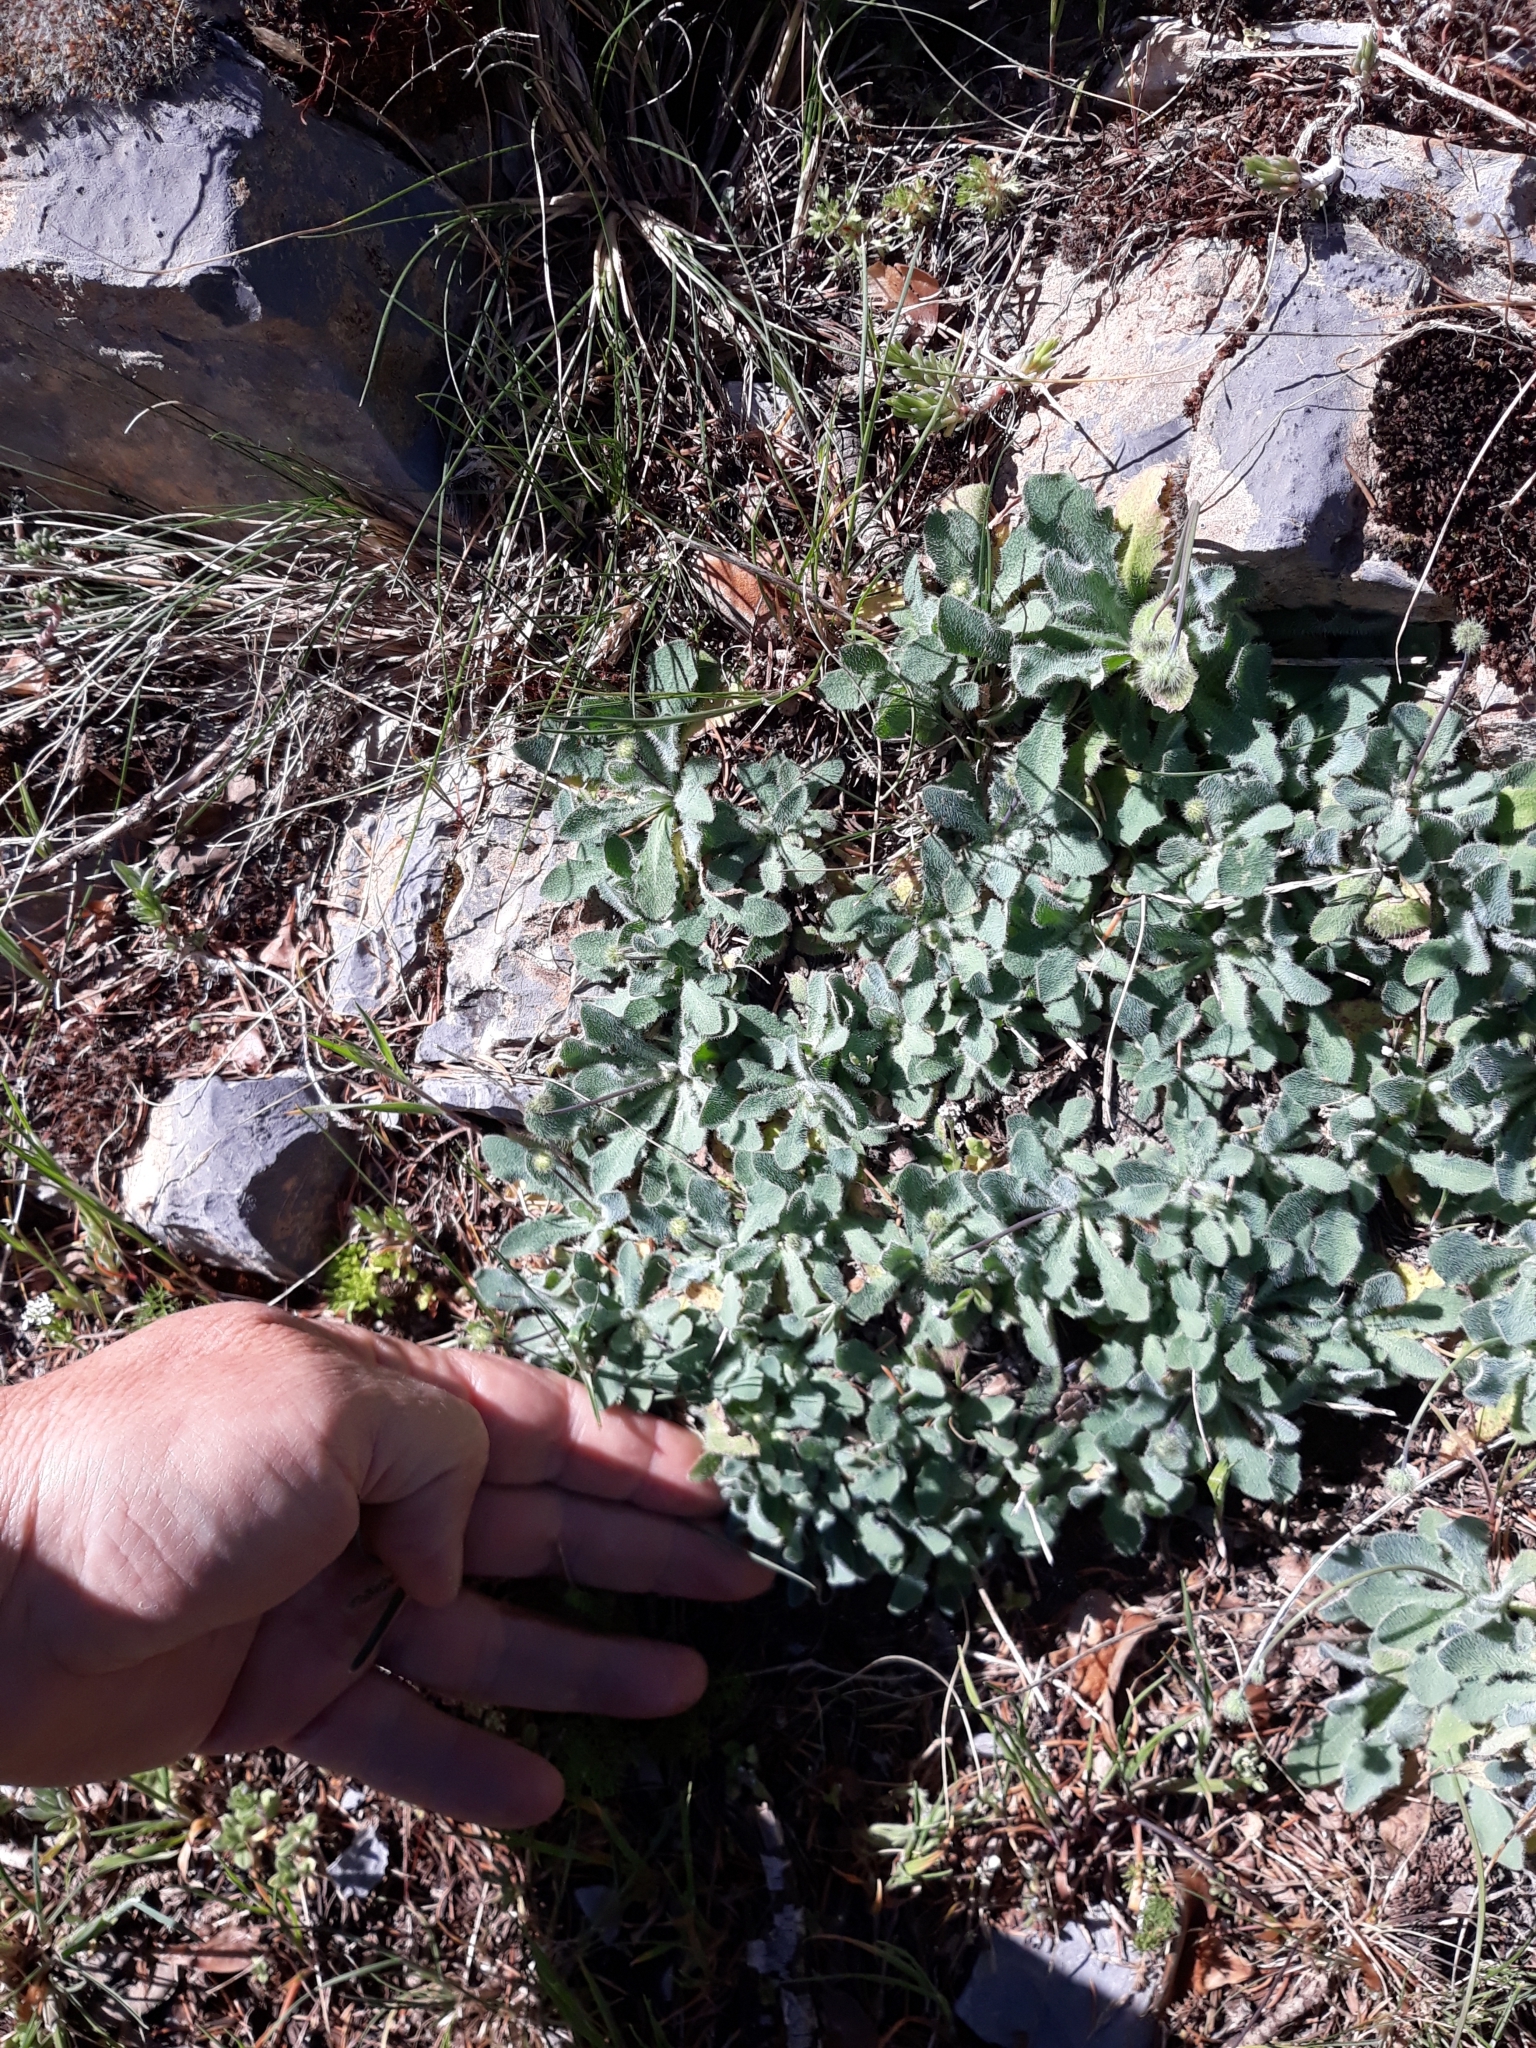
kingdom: Plantae
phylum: Tracheophyta
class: Magnoliopsida
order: Asterales
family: Asteraceae
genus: Achyrophorus
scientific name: Achyrophorus laevigatus
